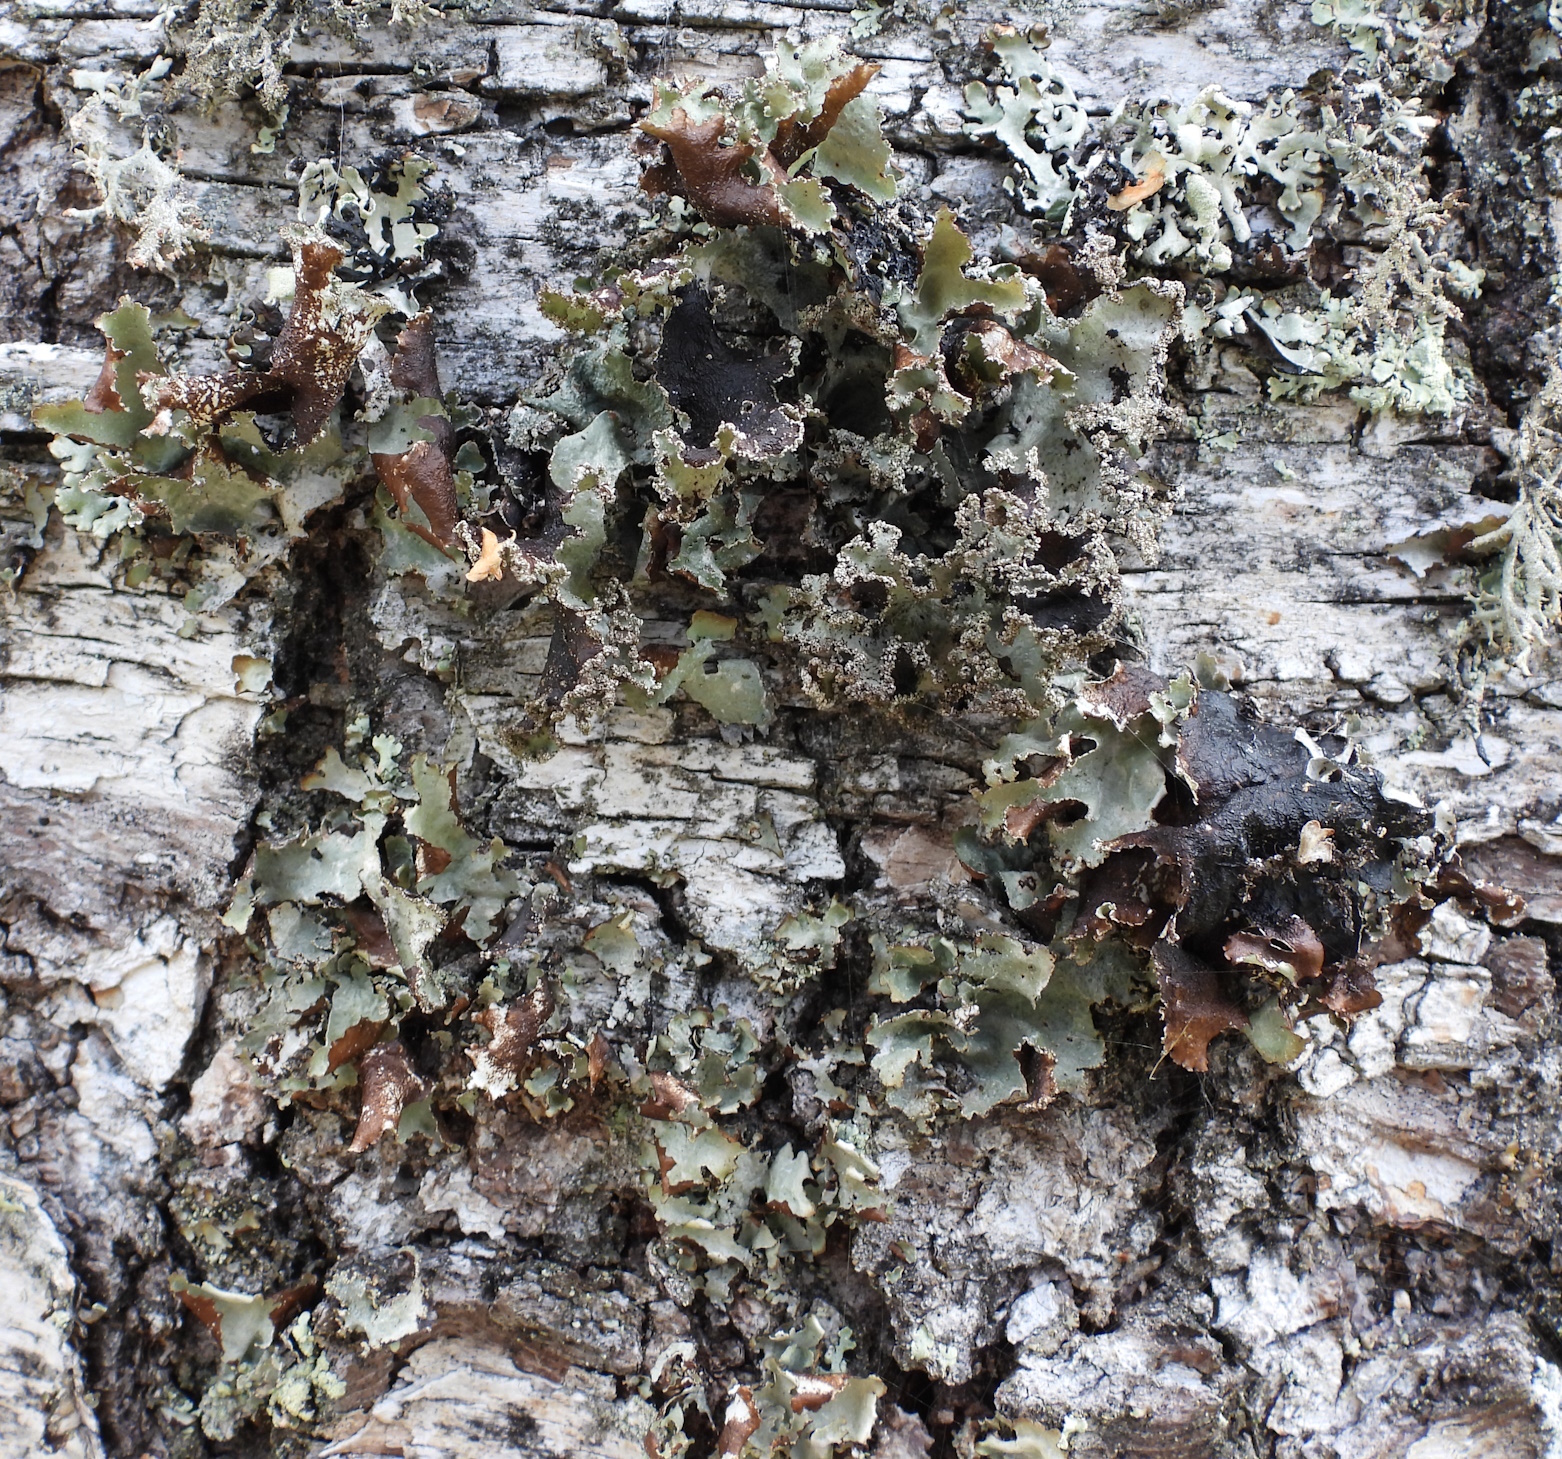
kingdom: Fungi
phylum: Ascomycota
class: Lecanoromycetes
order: Lecanorales
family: Parmeliaceae
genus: Platismatia
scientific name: Platismatia glauca
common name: Varied rag lichen
